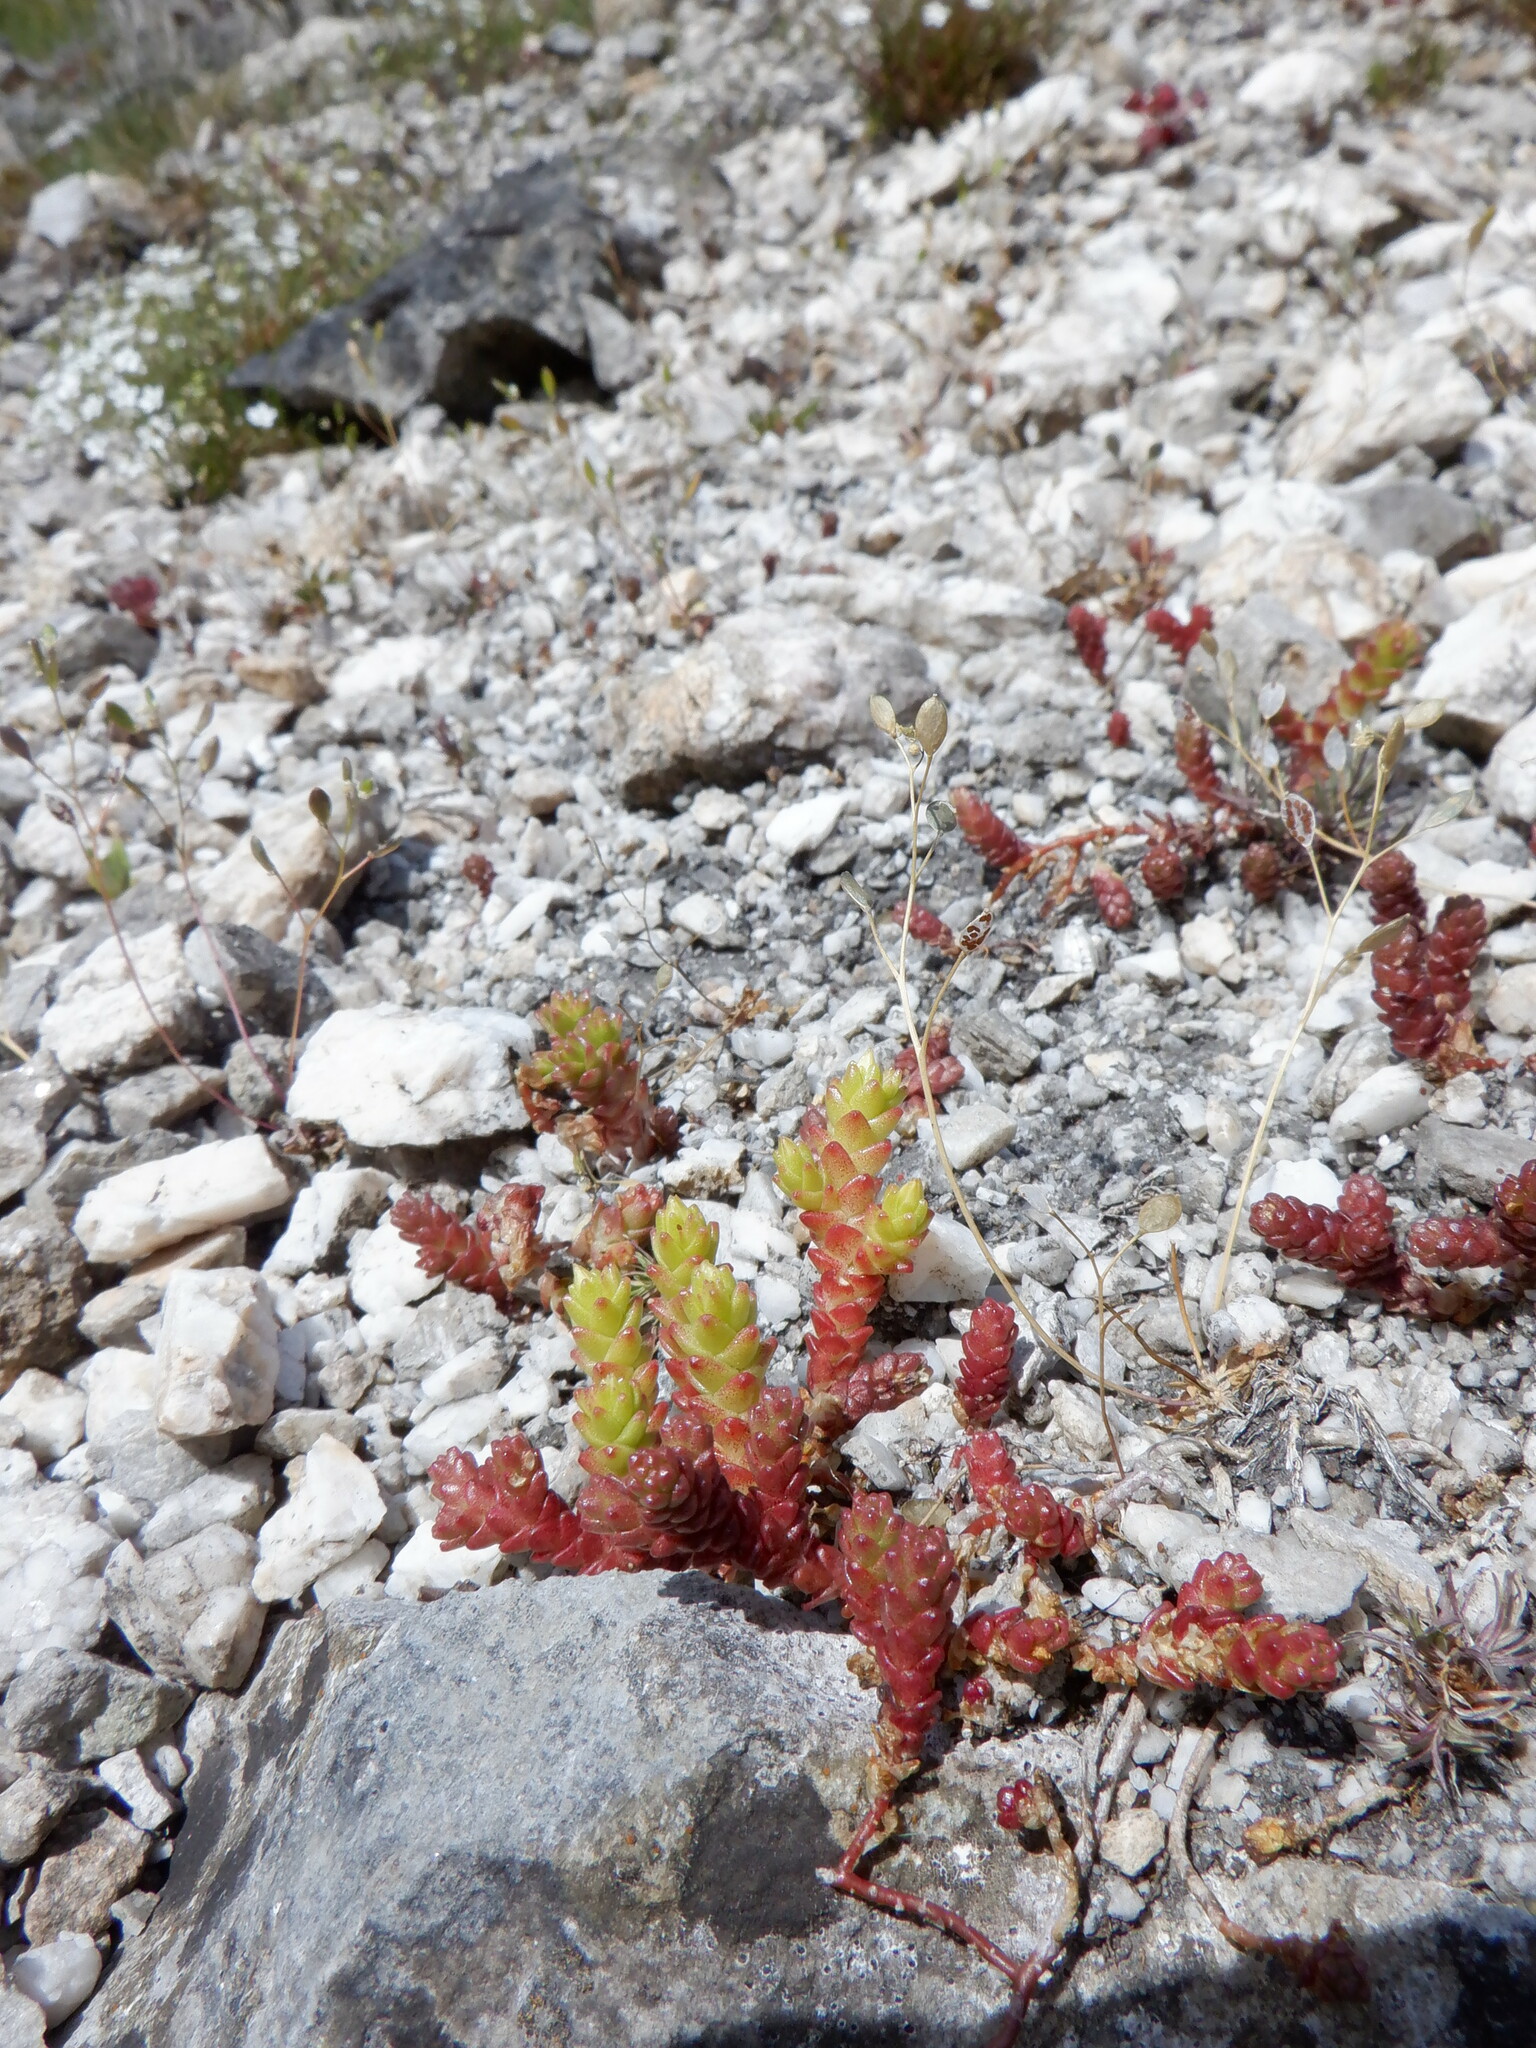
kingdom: Plantae
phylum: Tracheophyta
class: Magnoliopsida
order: Saxifragales
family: Crassulaceae
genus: Sedum
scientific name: Sedum acre
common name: Biting stonecrop
